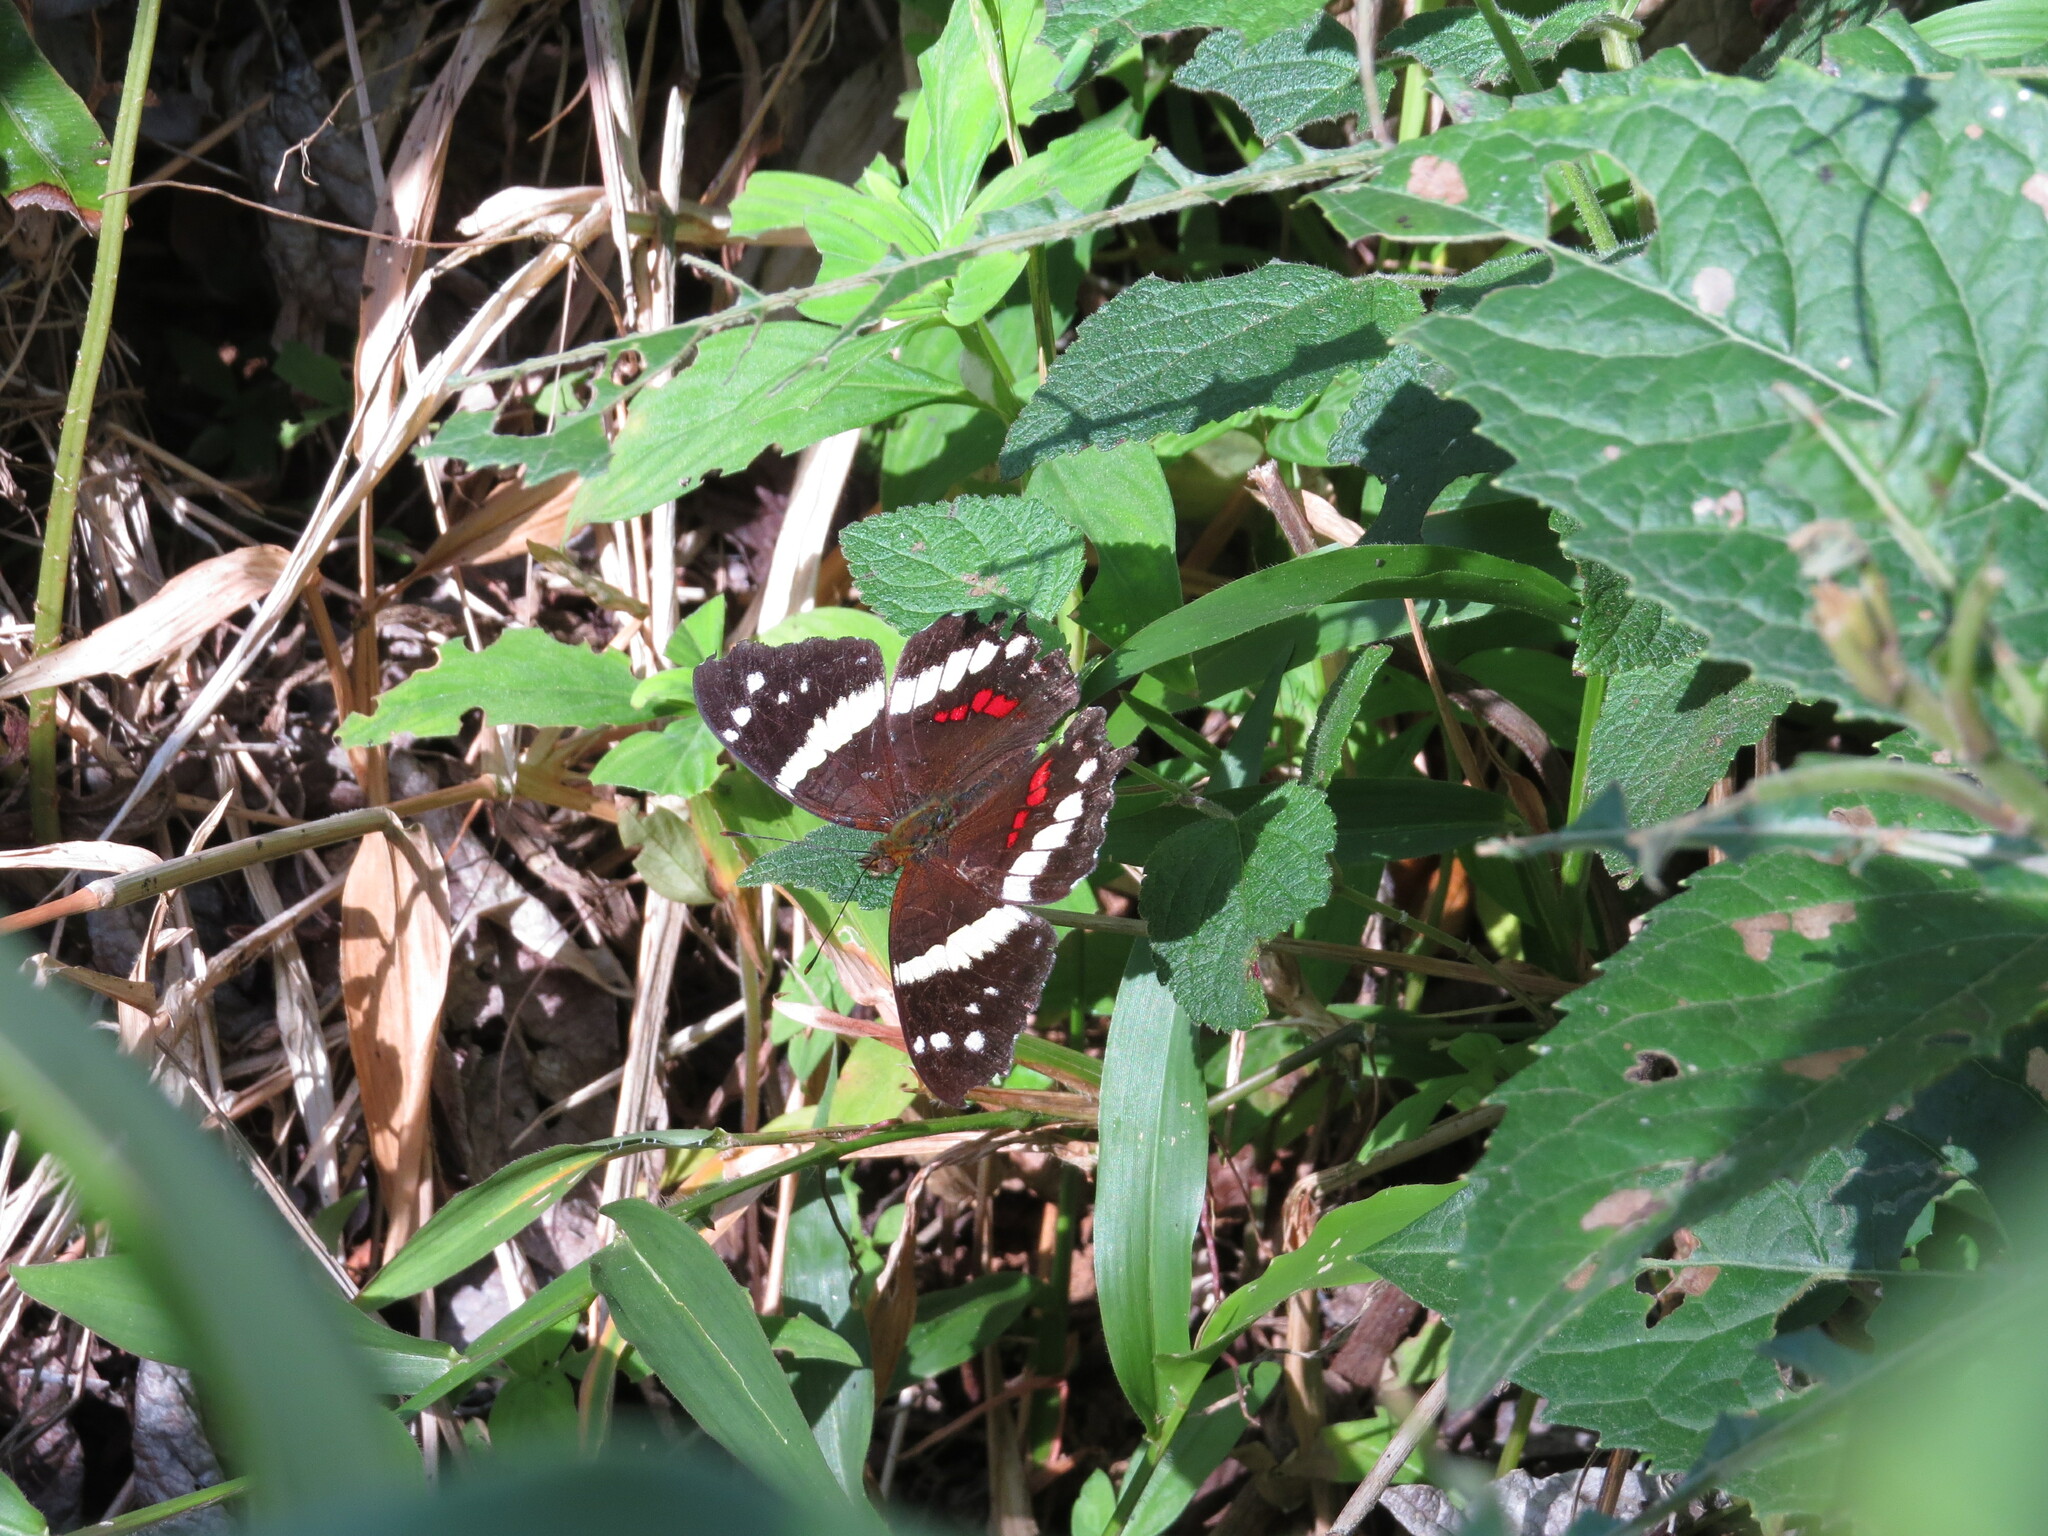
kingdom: Animalia
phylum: Arthropoda
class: Insecta
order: Lepidoptera
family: Nymphalidae
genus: Anartia
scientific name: Anartia fatima
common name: Banded peacock
